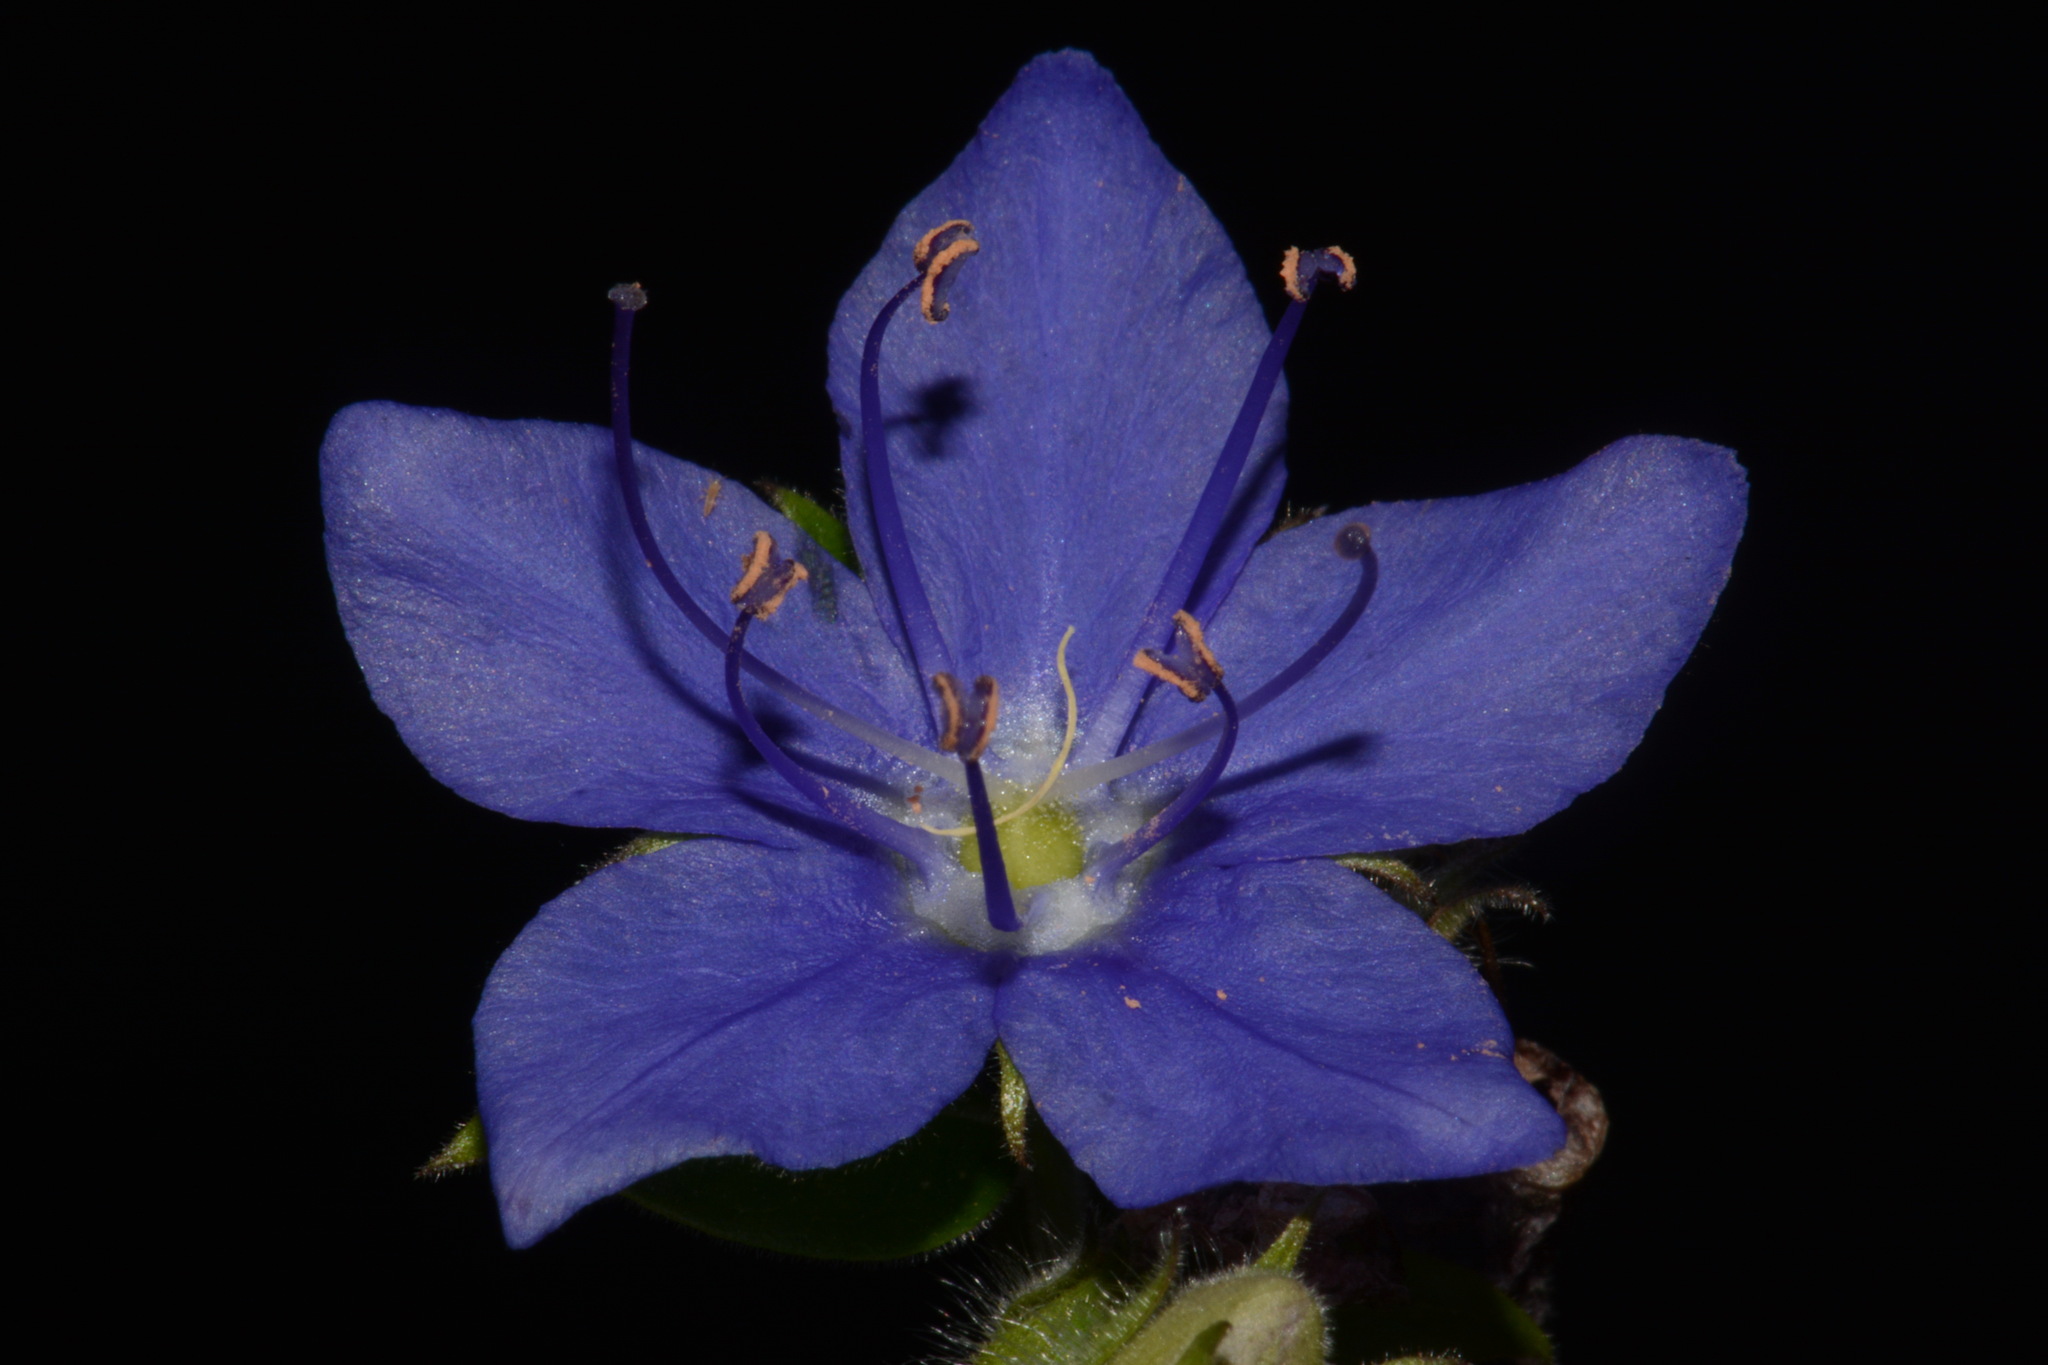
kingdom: Plantae
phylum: Tracheophyta
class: Magnoliopsida
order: Solanales
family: Hydroleaceae
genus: Hydrolea
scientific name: Hydrolea ovata
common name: Ovate false fiddleleaf
